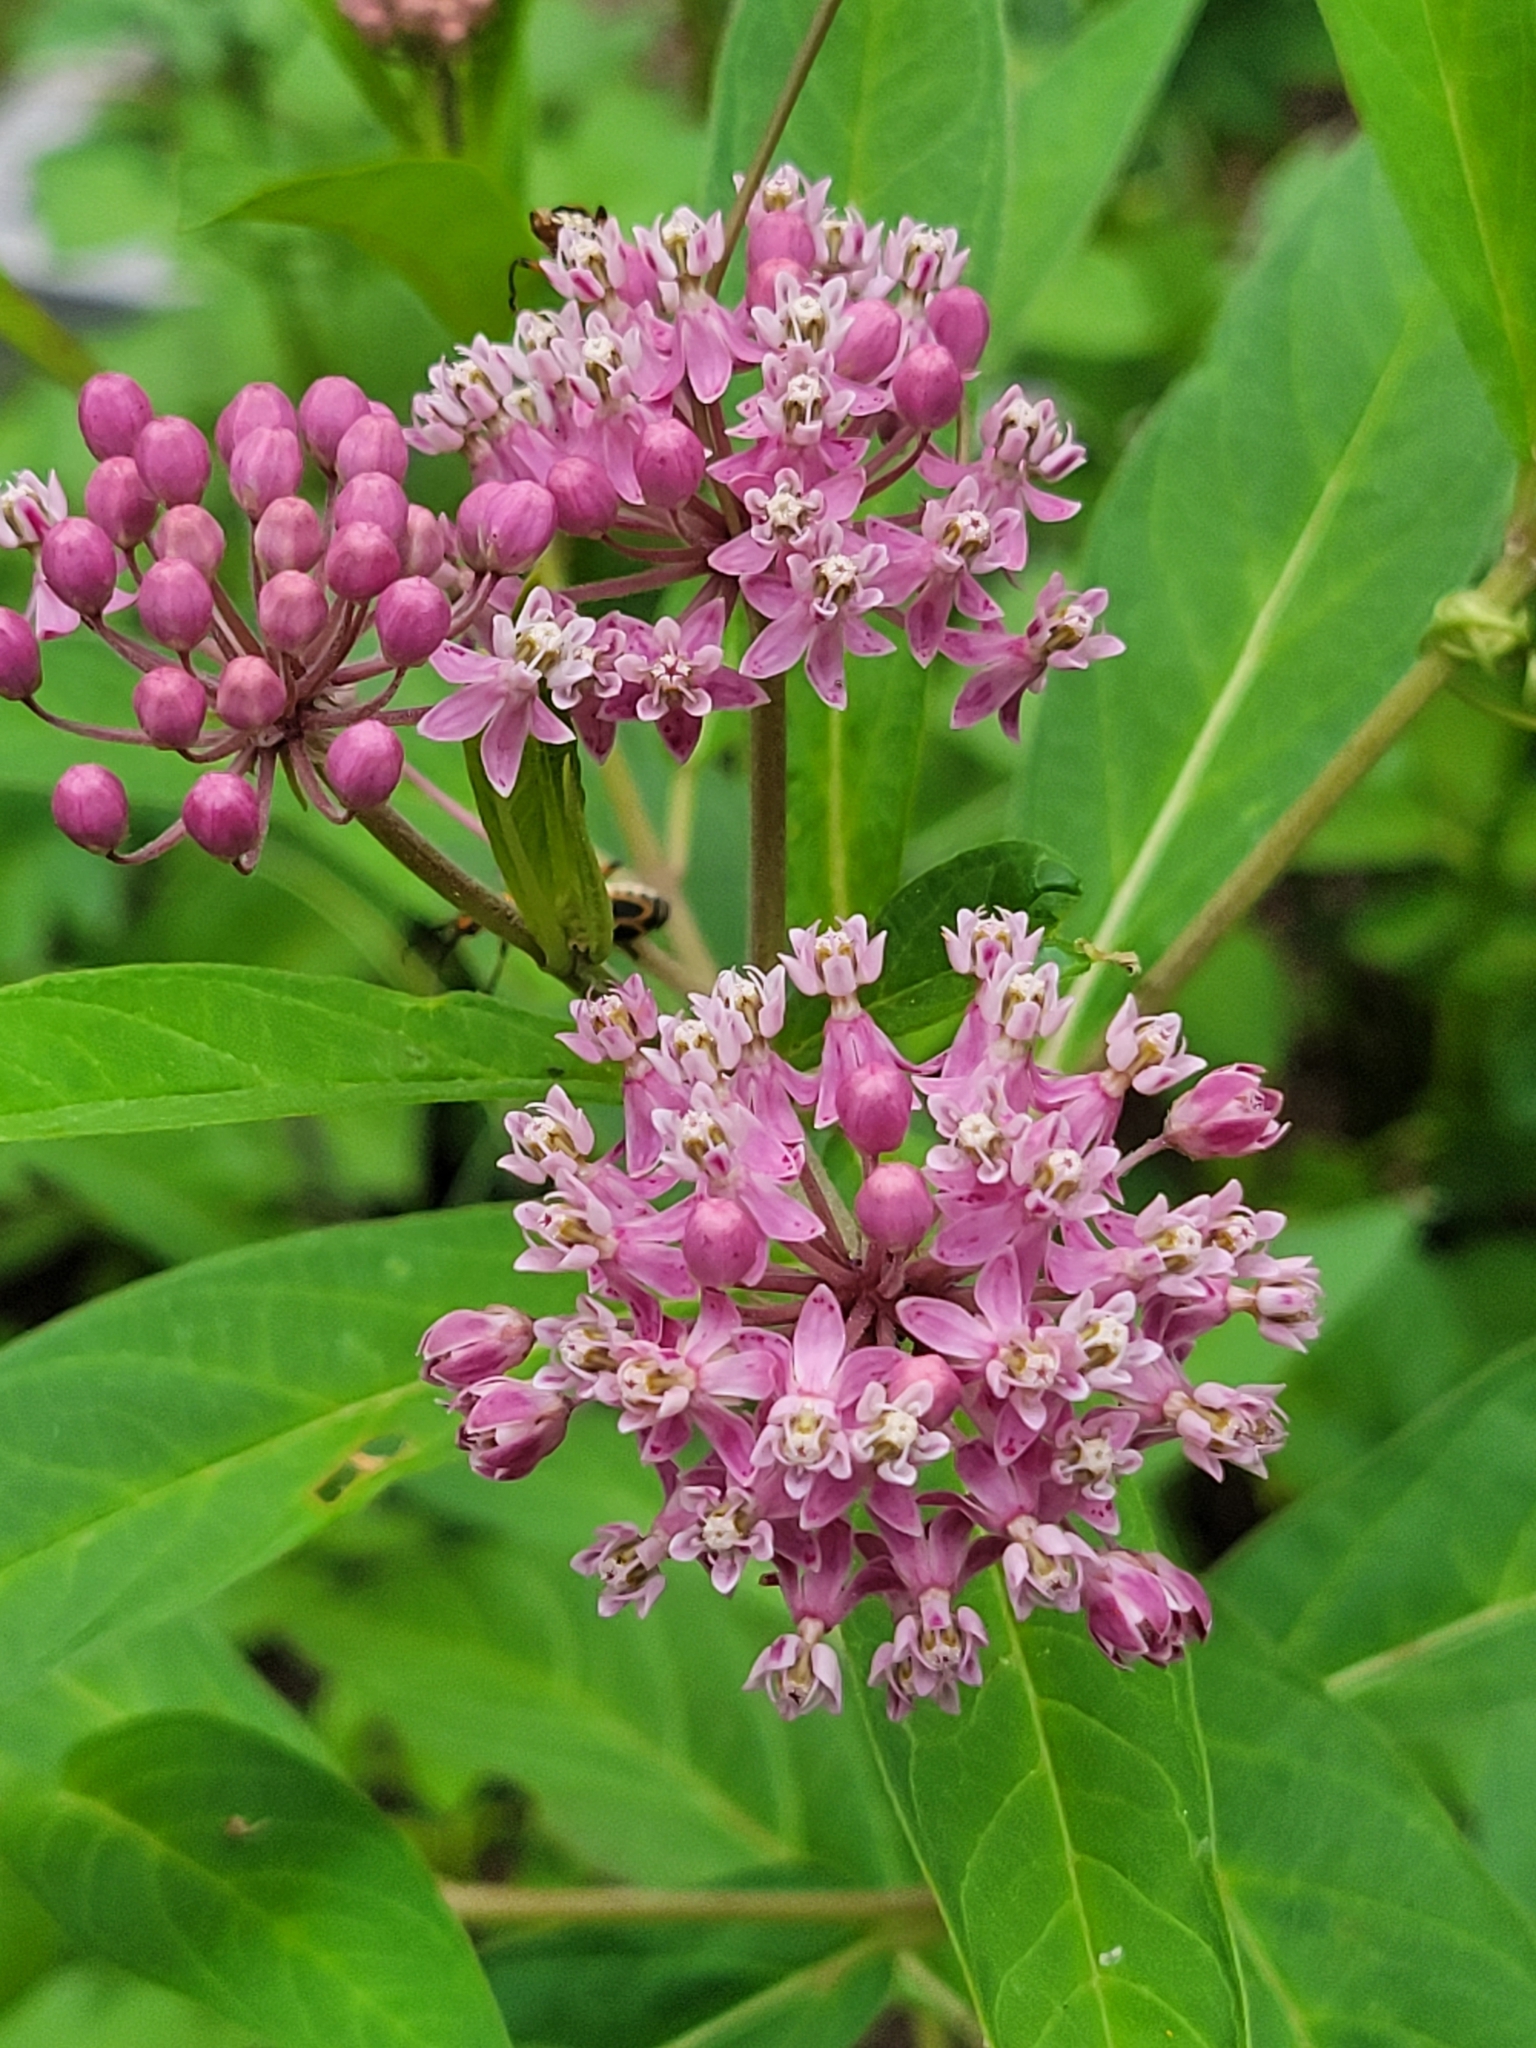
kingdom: Plantae
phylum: Tracheophyta
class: Magnoliopsida
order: Gentianales
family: Apocynaceae
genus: Asclepias
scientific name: Asclepias incarnata
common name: Swamp milkweed
